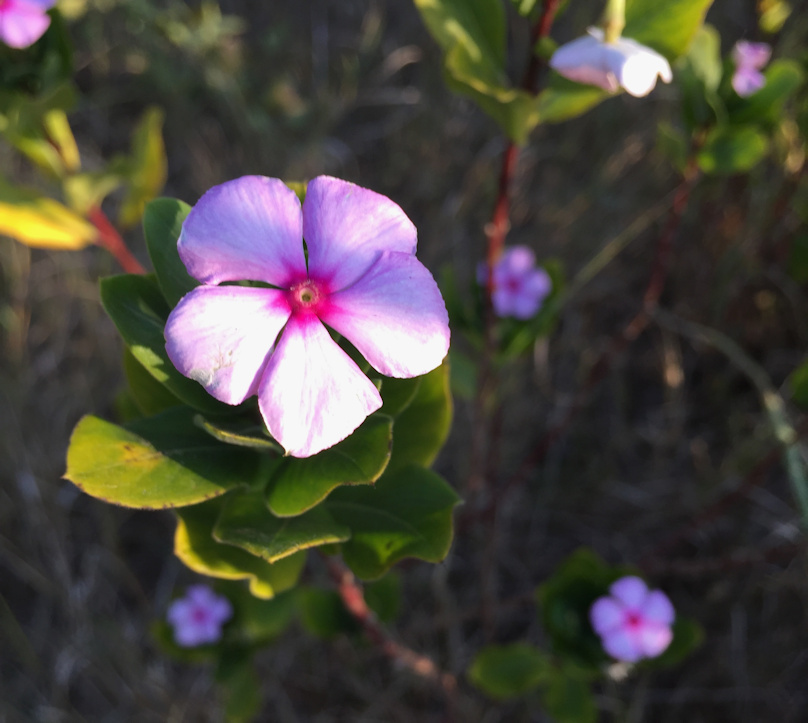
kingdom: Plantae
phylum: Tracheophyta
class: Magnoliopsida
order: Gentianales
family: Apocynaceae
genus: Catharanthus
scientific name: Catharanthus roseus
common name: Madagascar periwinkle
